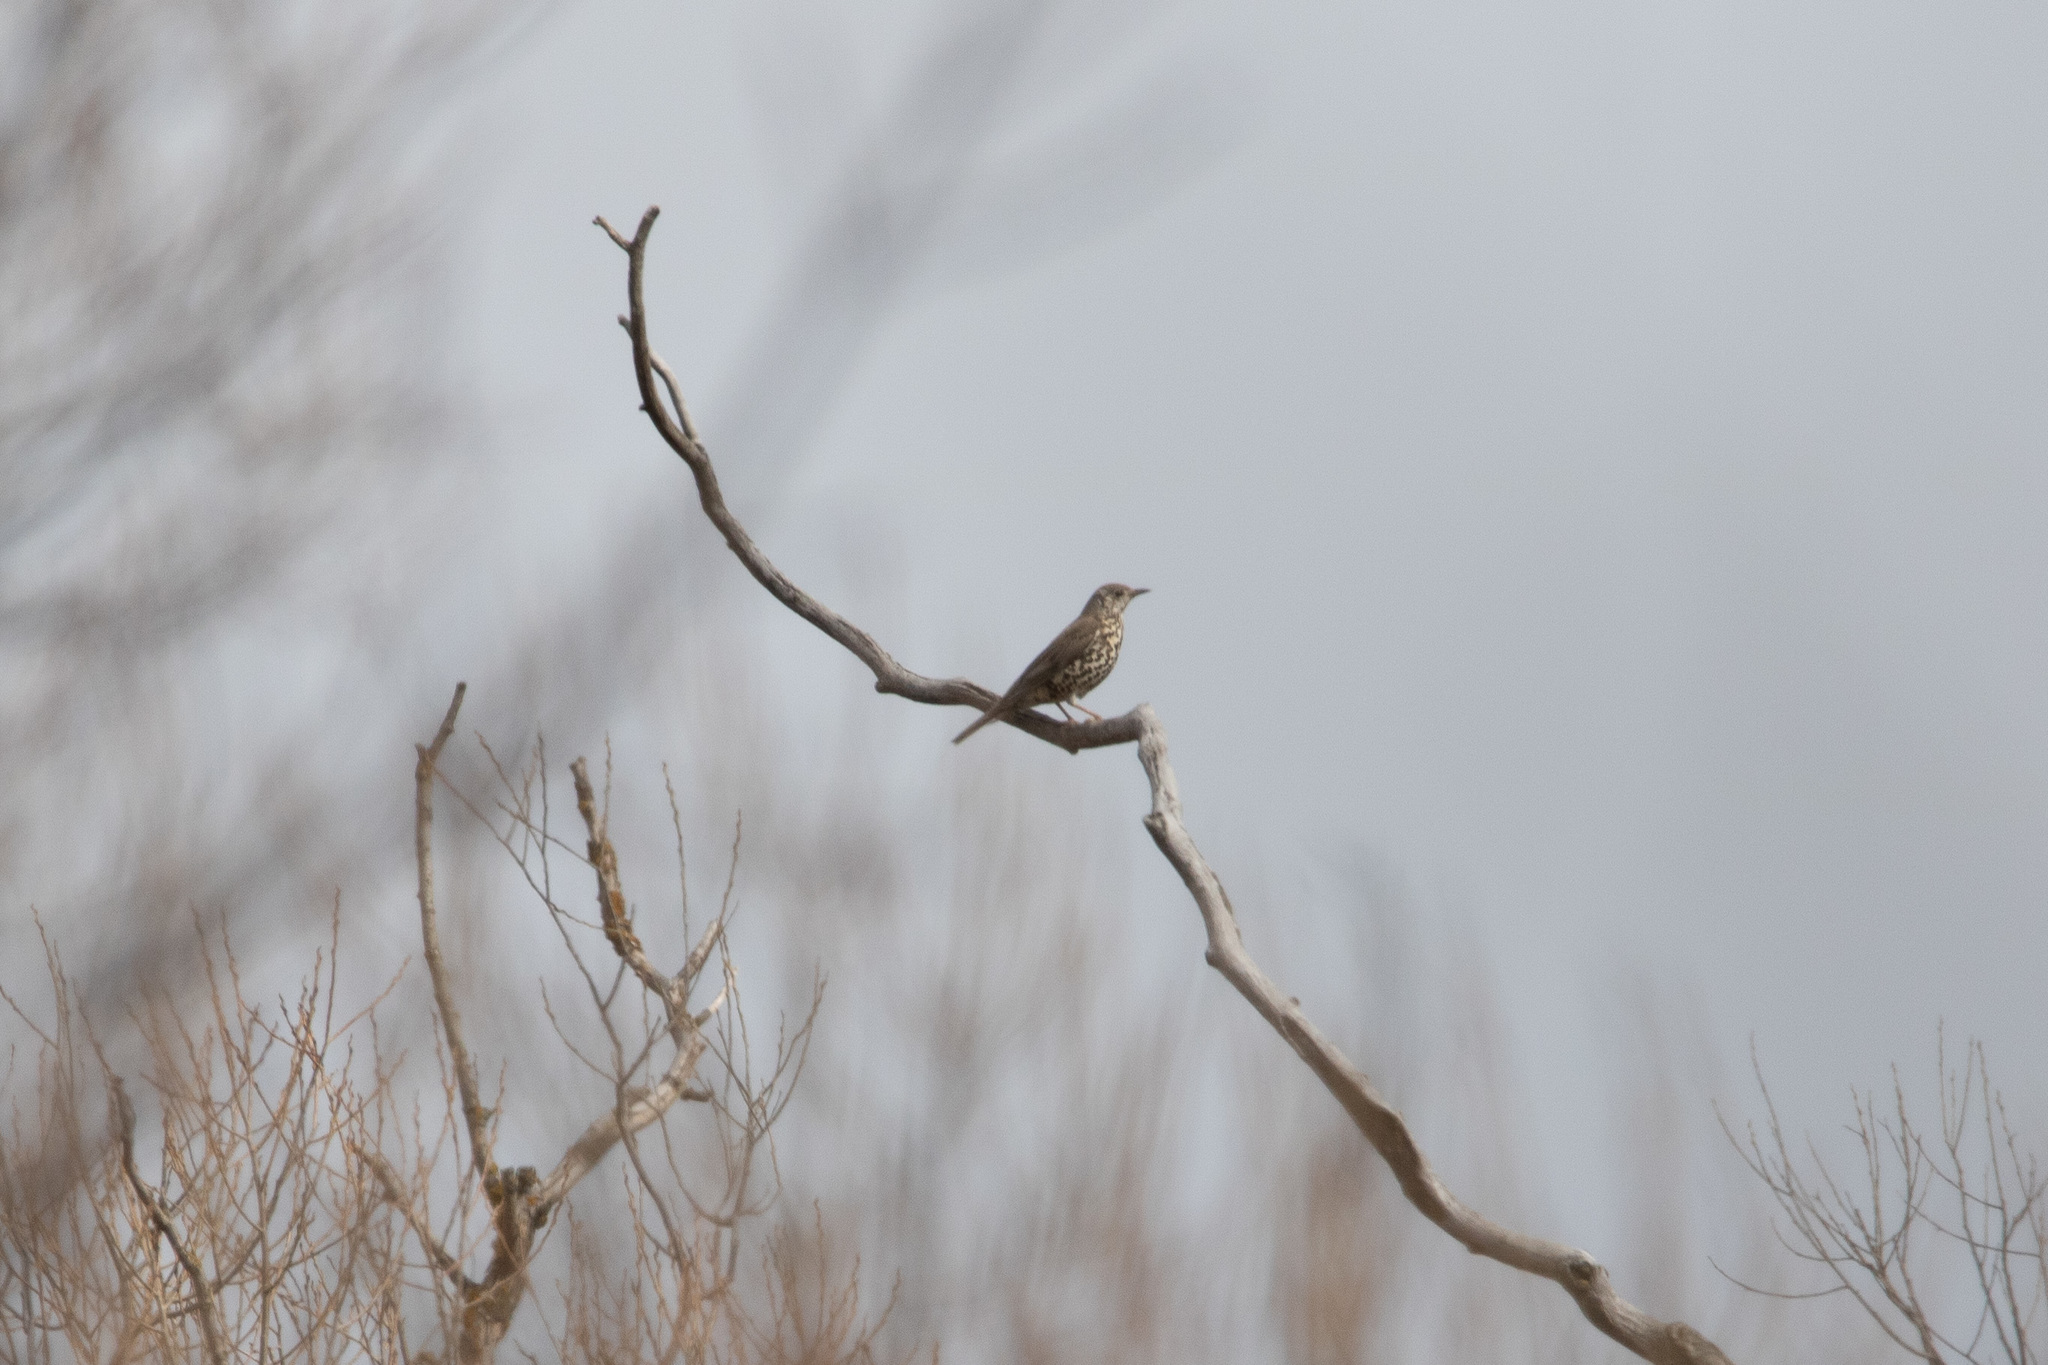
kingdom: Animalia
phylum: Chordata
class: Aves
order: Passeriformes
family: Turdidae
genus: Turdus
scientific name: Turdus viscivorus
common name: Mistle thrush
